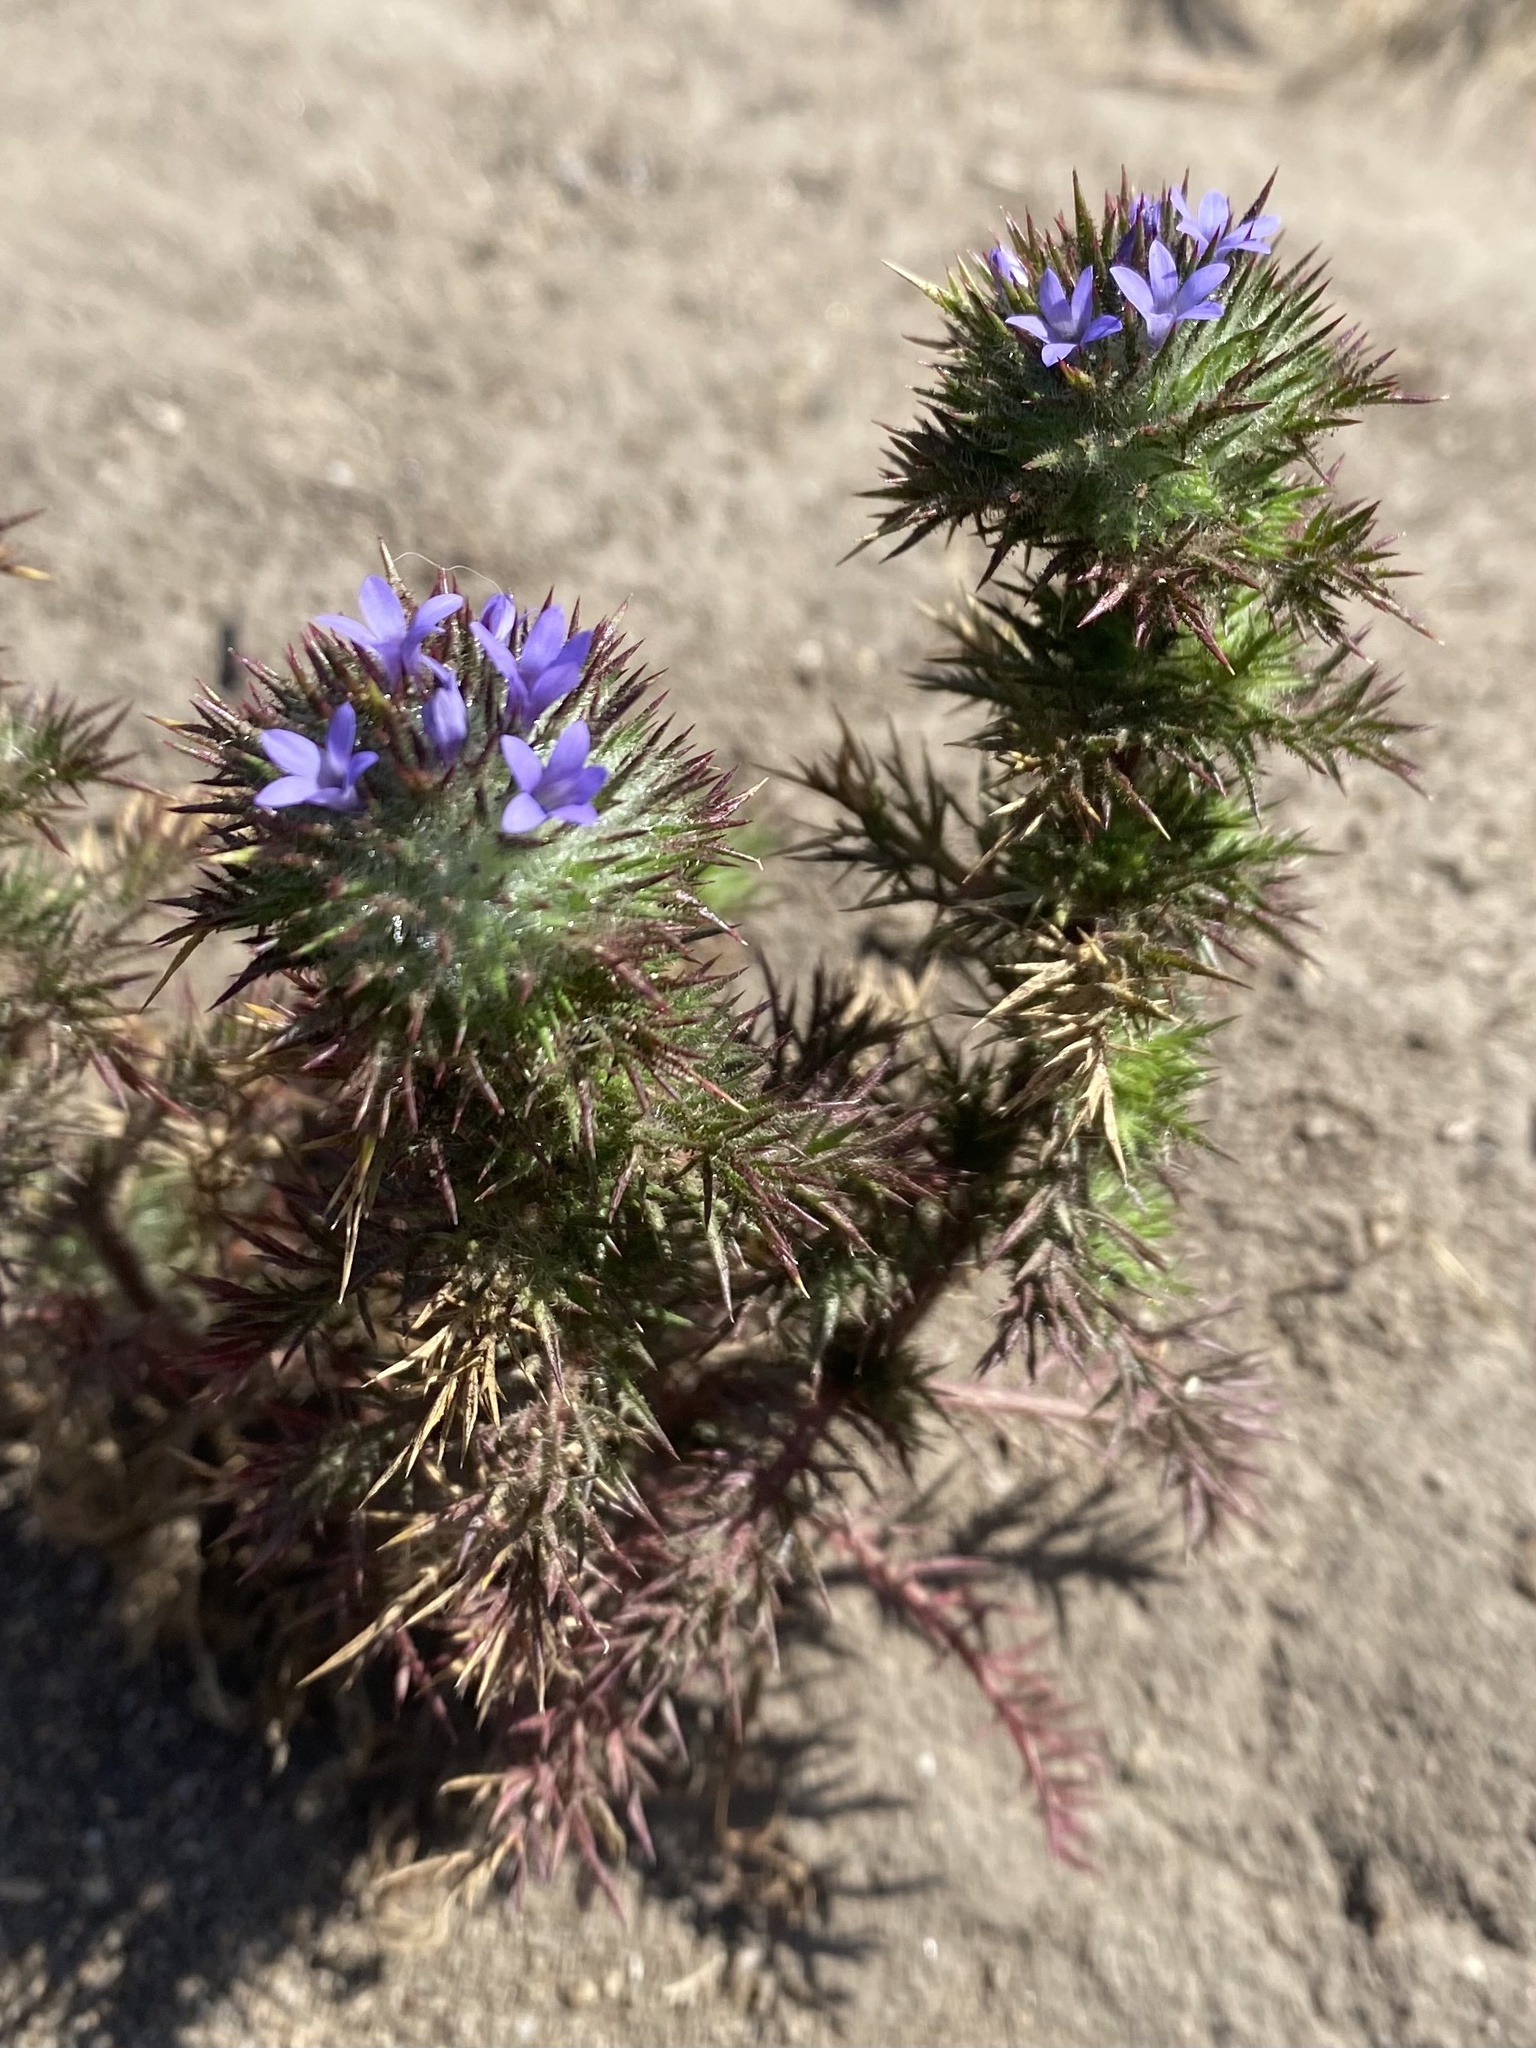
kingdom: Plantae
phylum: Tracheophyta
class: Magnoliopsida
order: Ericales
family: Polemoniaceae
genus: Navarretia
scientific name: Navarretia squarrosa
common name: Skunkweed
